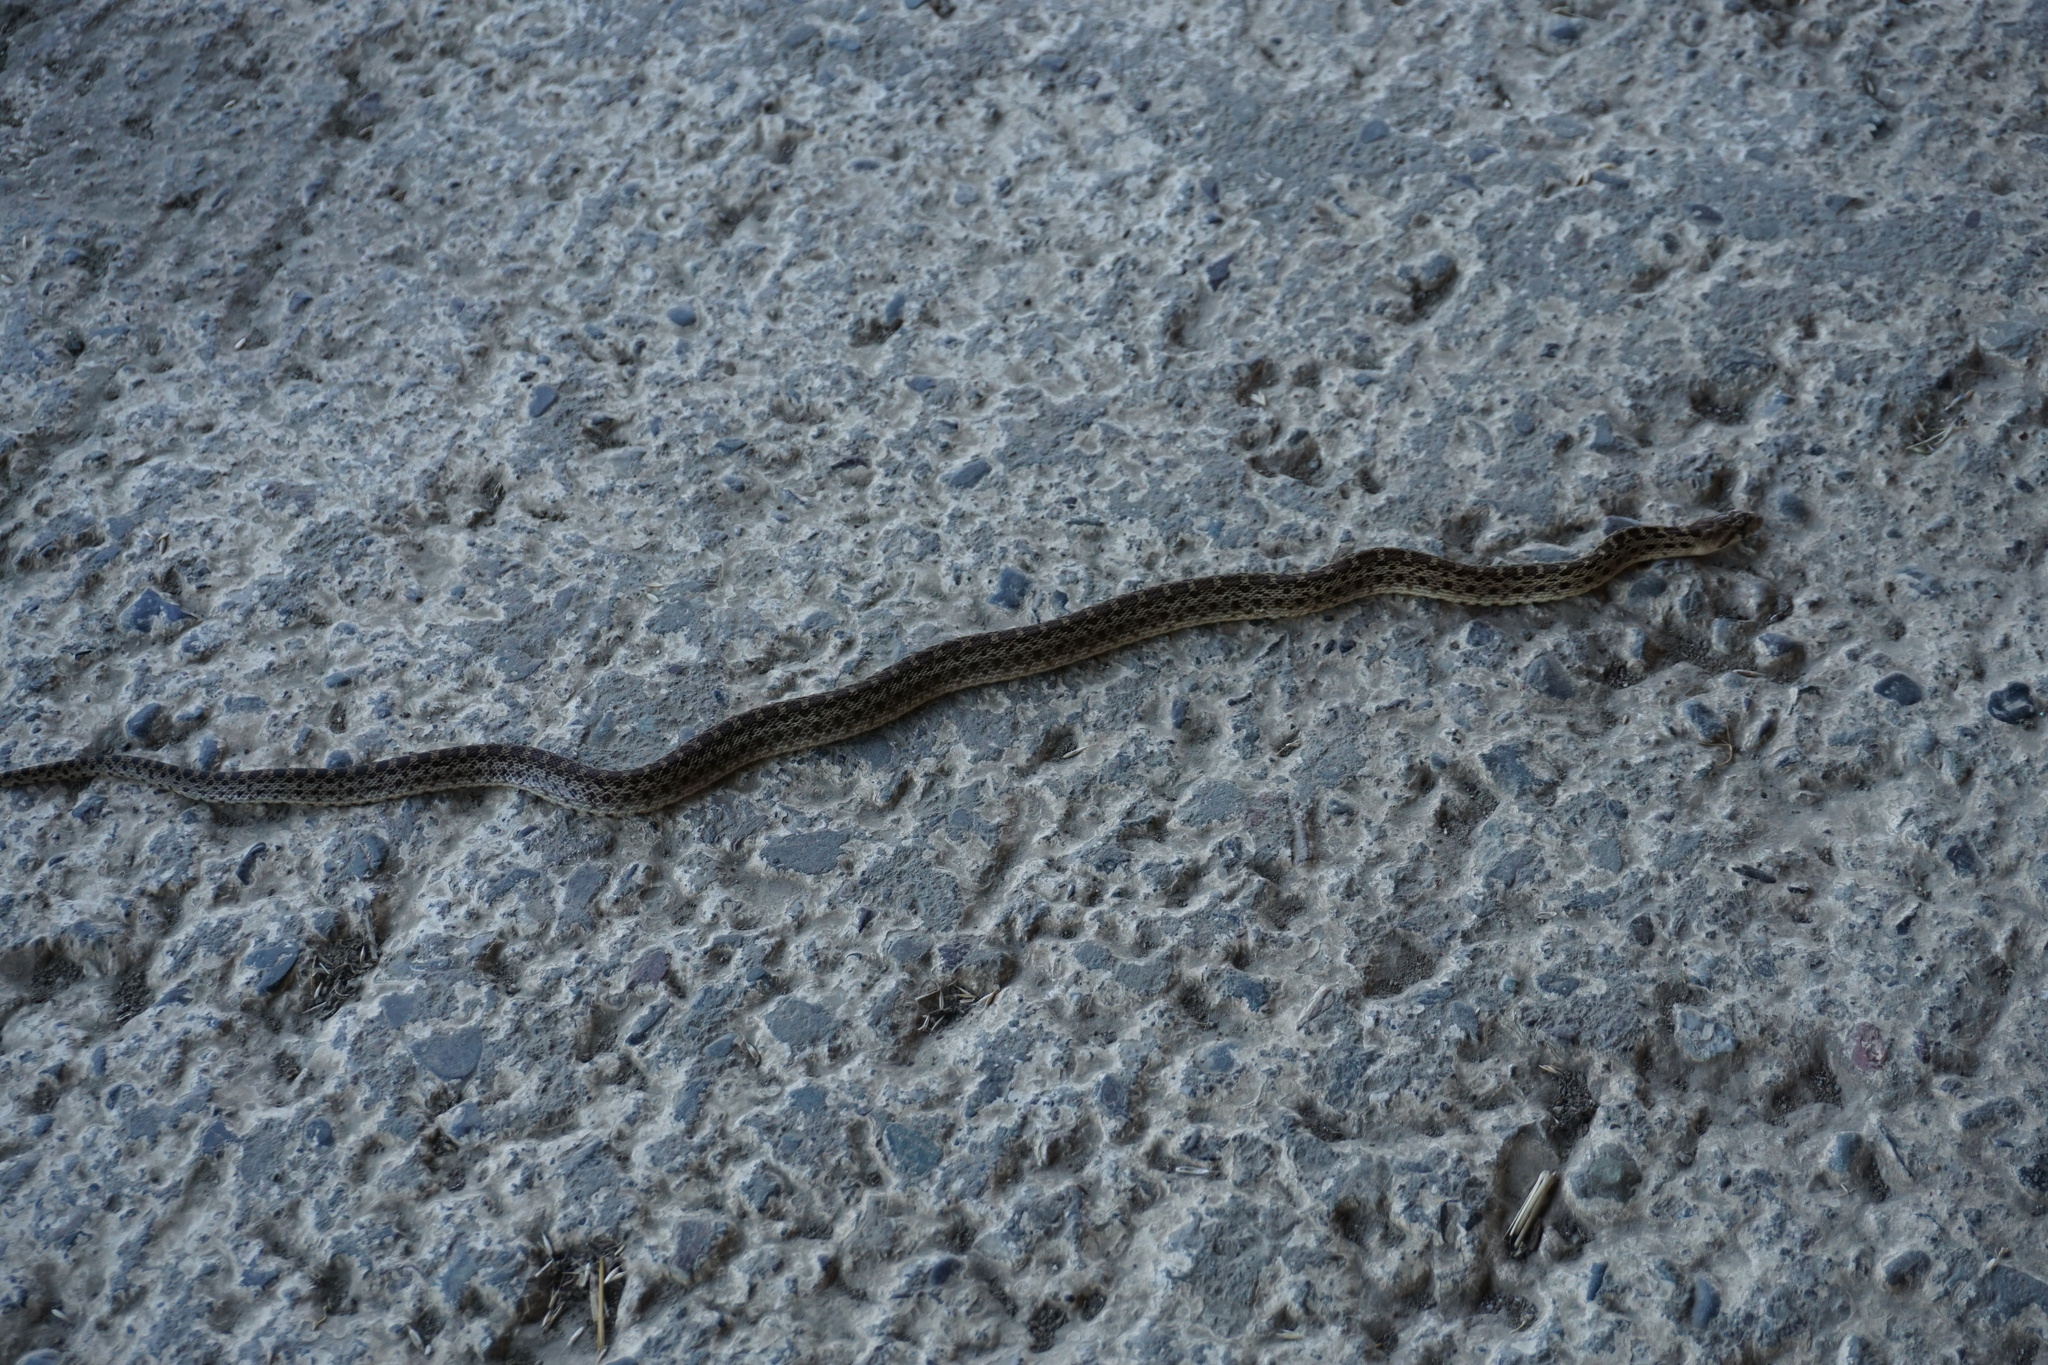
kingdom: Animalia
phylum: Chordata
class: Squamata
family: Colubridae
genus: Pituophis
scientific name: Pituophis catenifer
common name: Gopher snake
